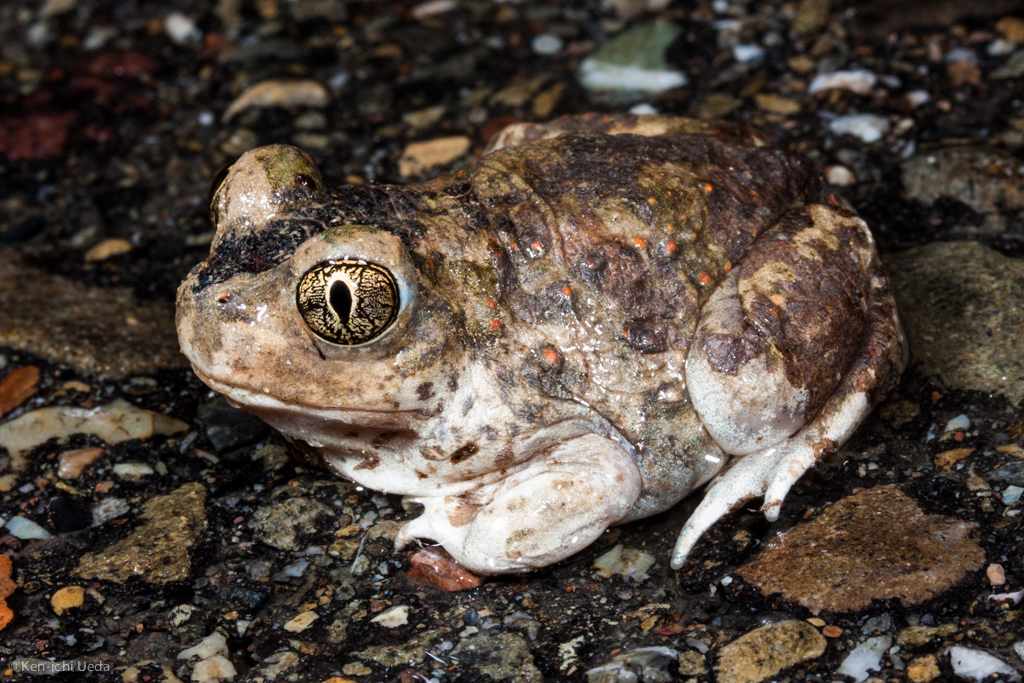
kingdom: Animalia
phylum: Chordata
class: Amphibia
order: Anura
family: Scaphiopodidae
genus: Spea
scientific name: Spea hammondii
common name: Western spadefoot toad
